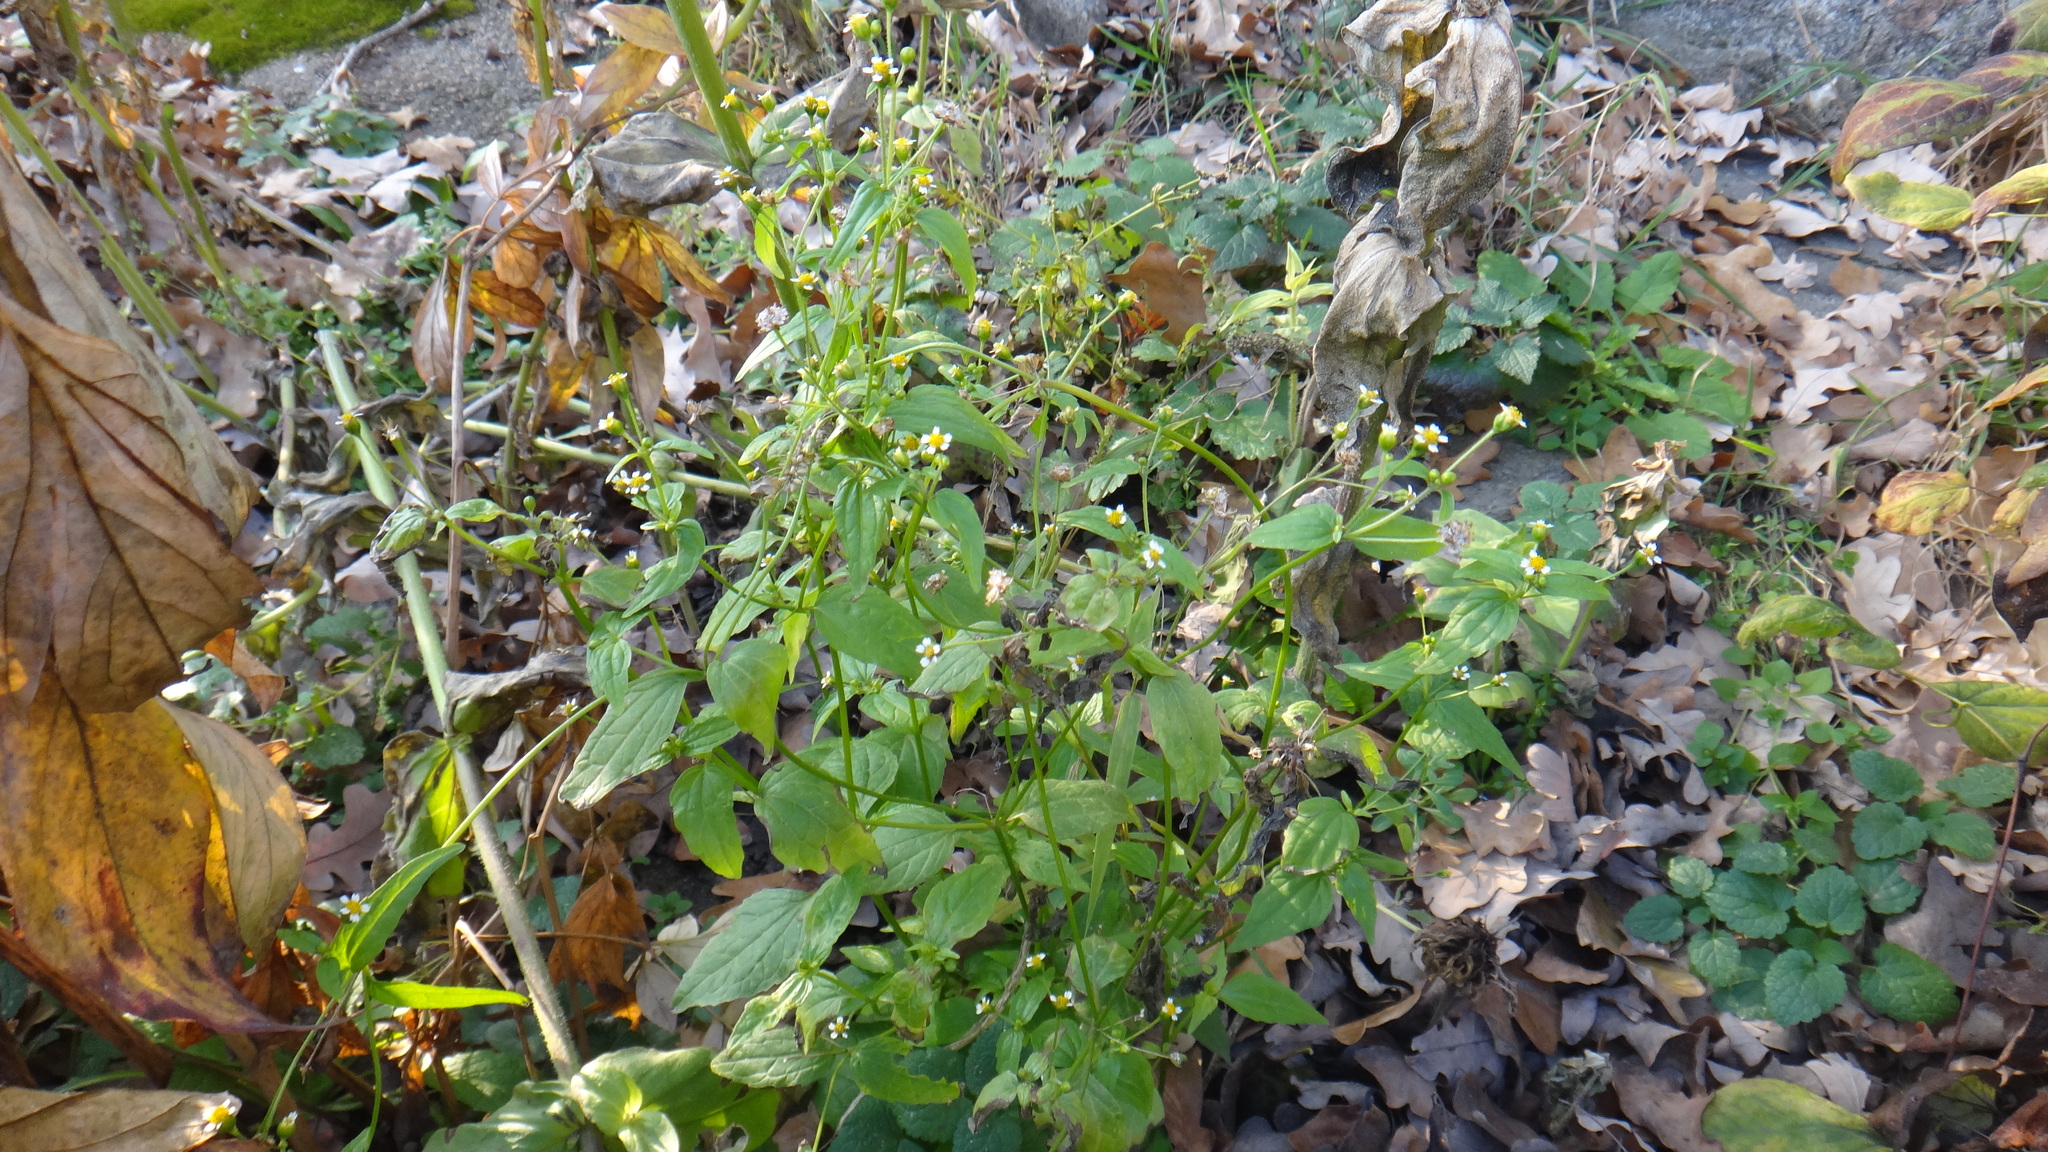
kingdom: Plantae
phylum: Tracheophyta
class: Magnoliopsida
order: Asterales
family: Asteraceae
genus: Galinsoga
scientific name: Galinsoga parviflora
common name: Gallant soldier
